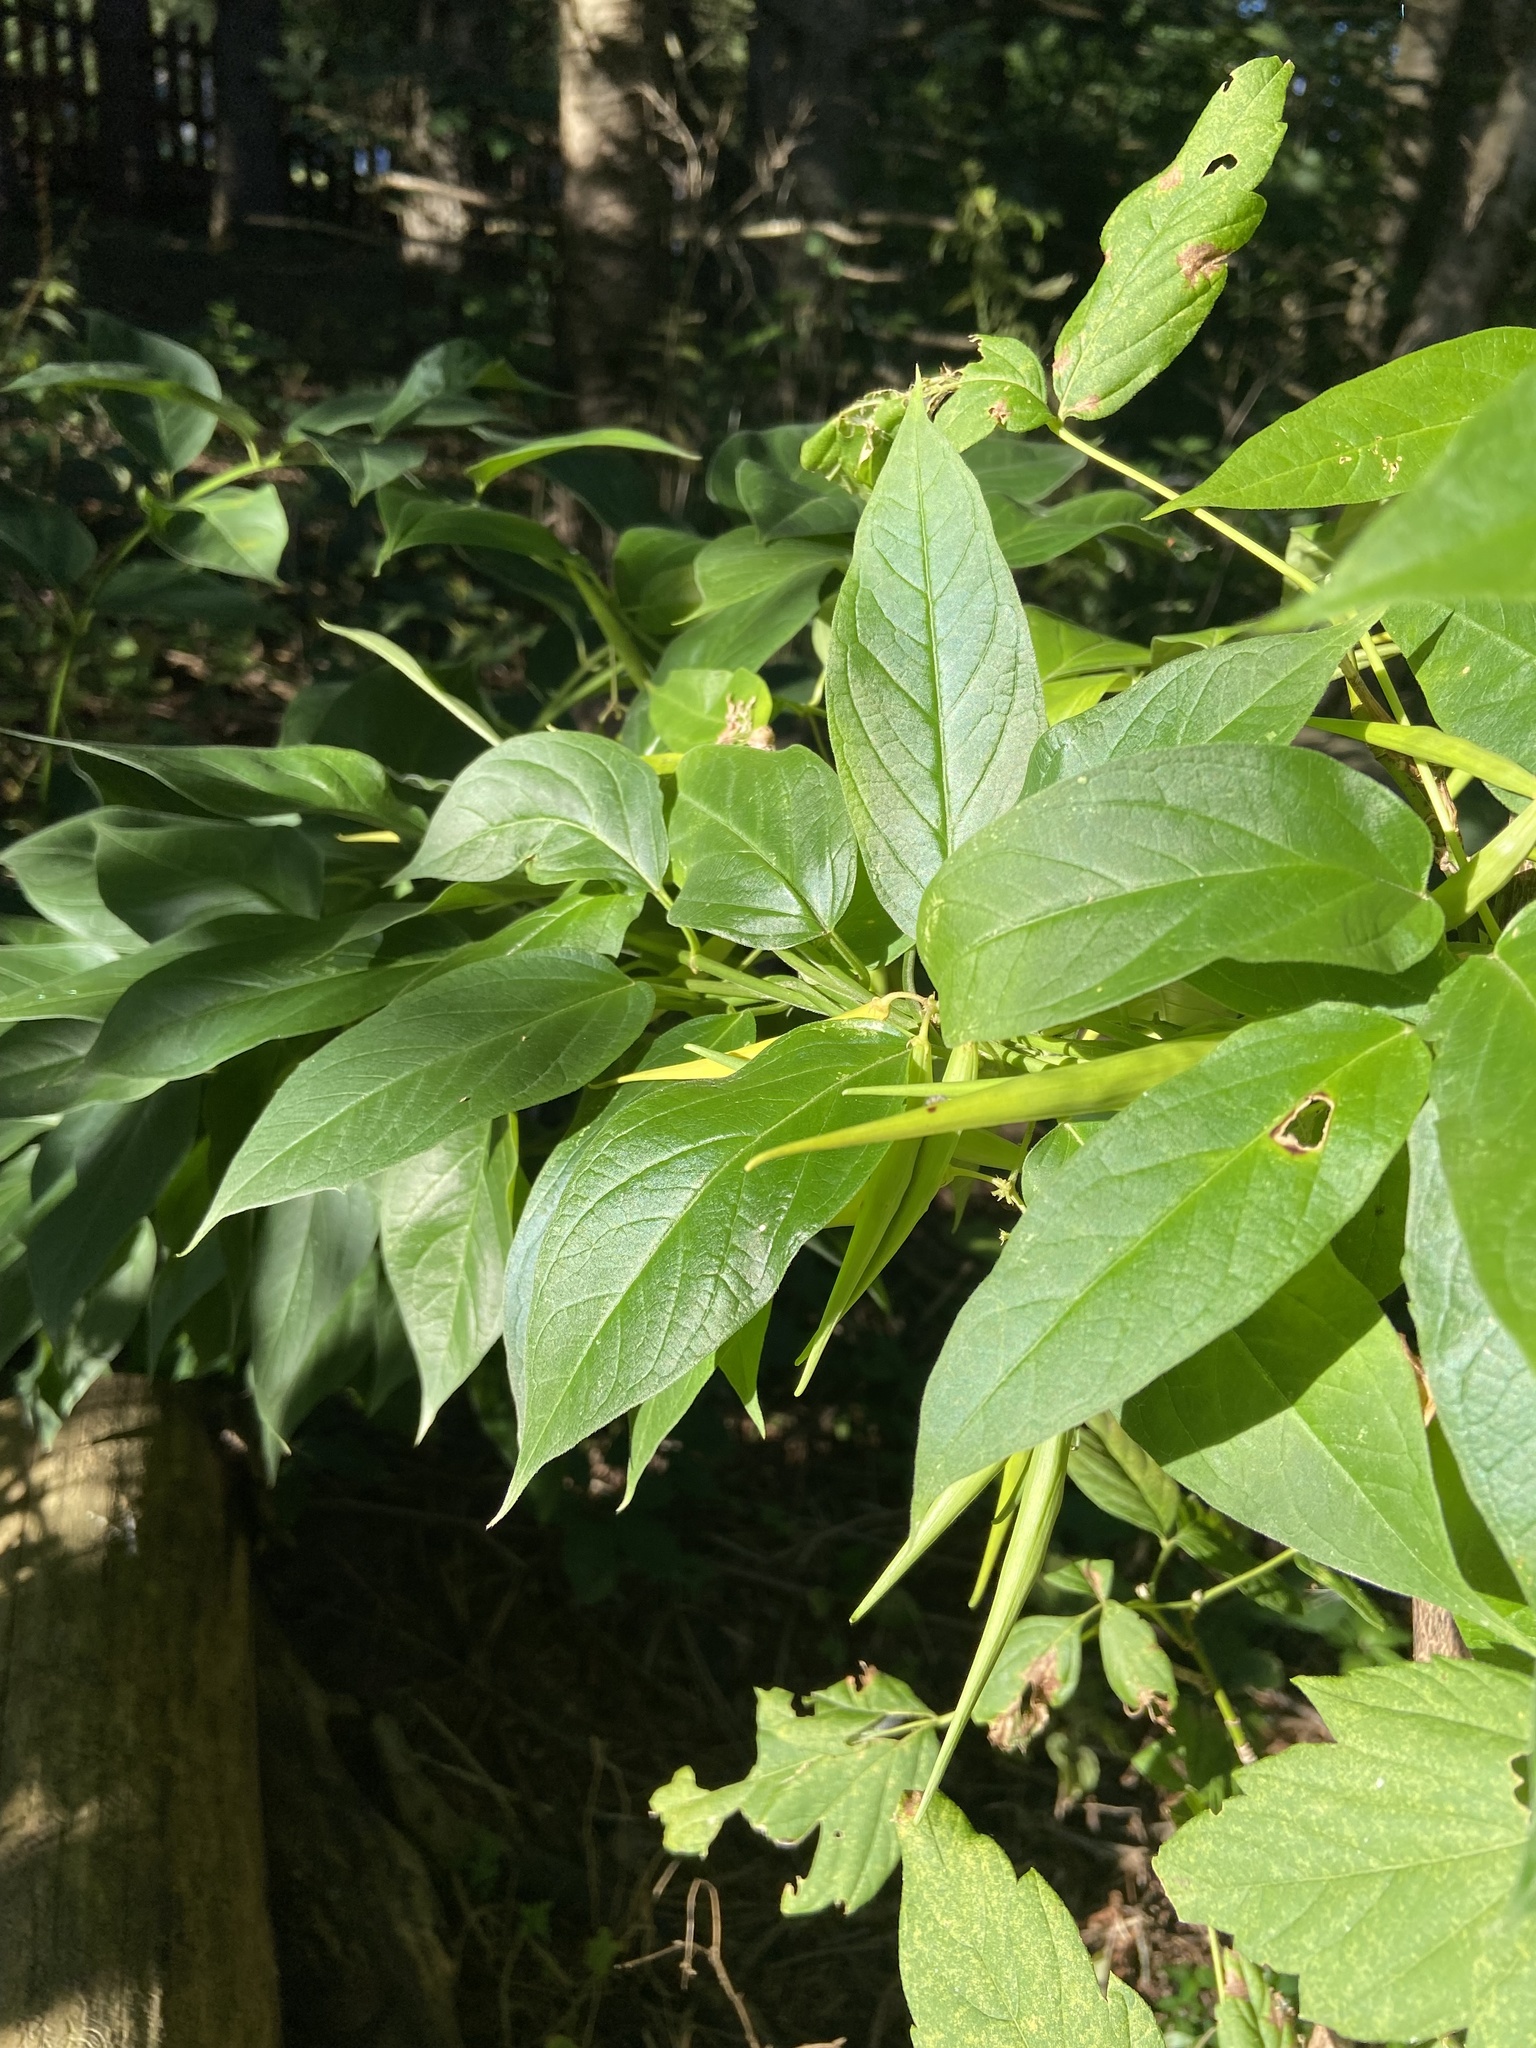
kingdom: Plantae
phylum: Tracheophyta
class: Magnoliopsida
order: Gentianales
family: Apocynaceae
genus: Vincetoxicum
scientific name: Vincetoxicum rossicum
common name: Dog-strangling vine
